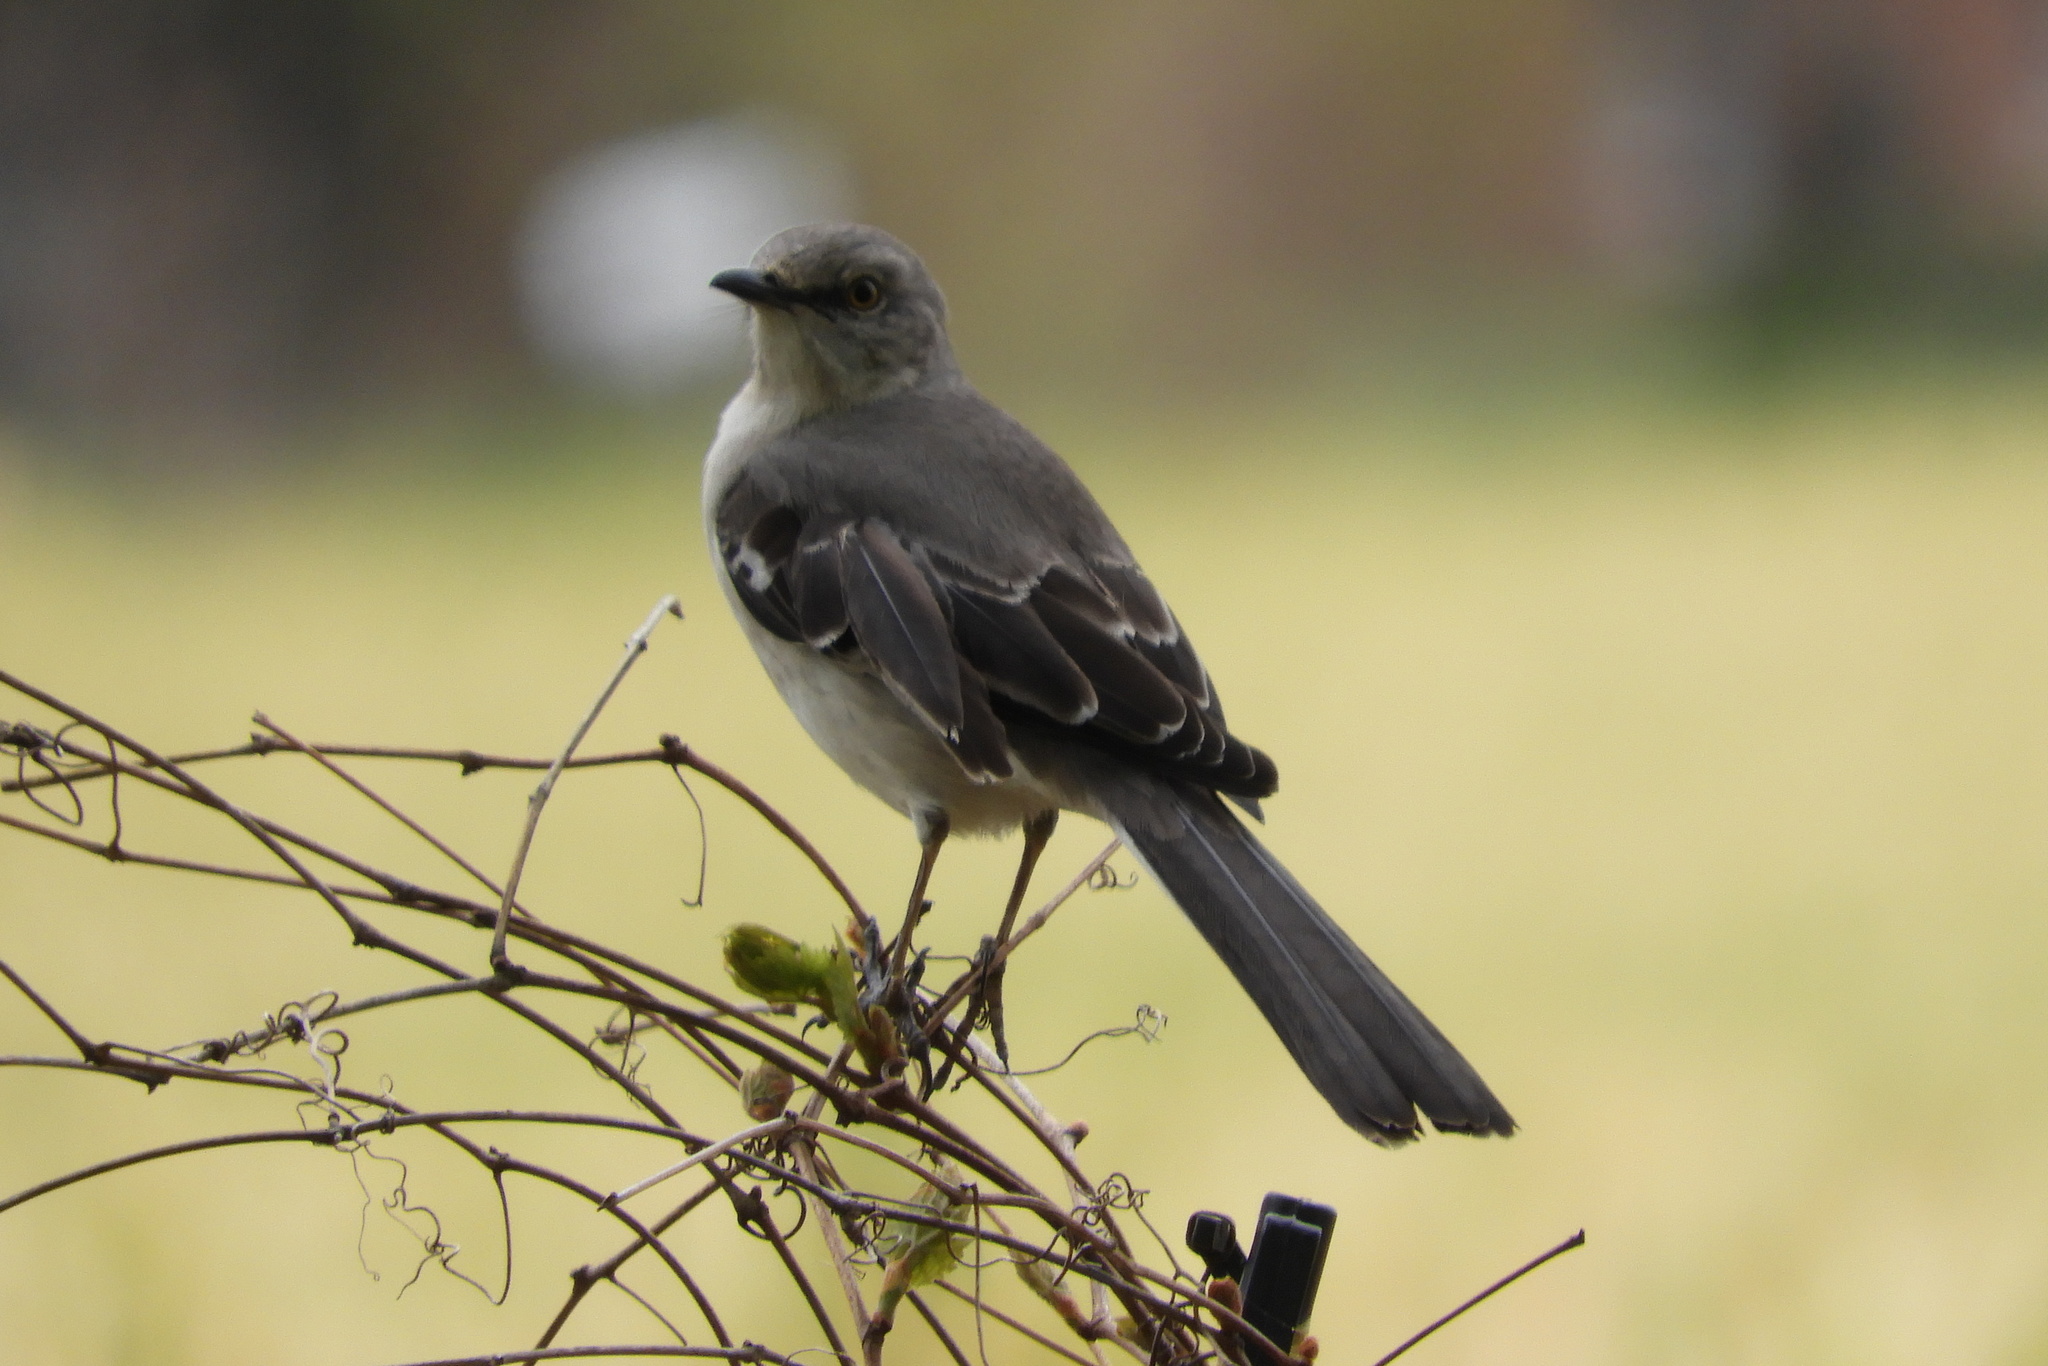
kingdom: Animalia
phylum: Chordata
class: Aves
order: Passeriformes
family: Mimidae
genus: Mimus
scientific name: Mimus polyglottos
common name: Northern mockingbird
